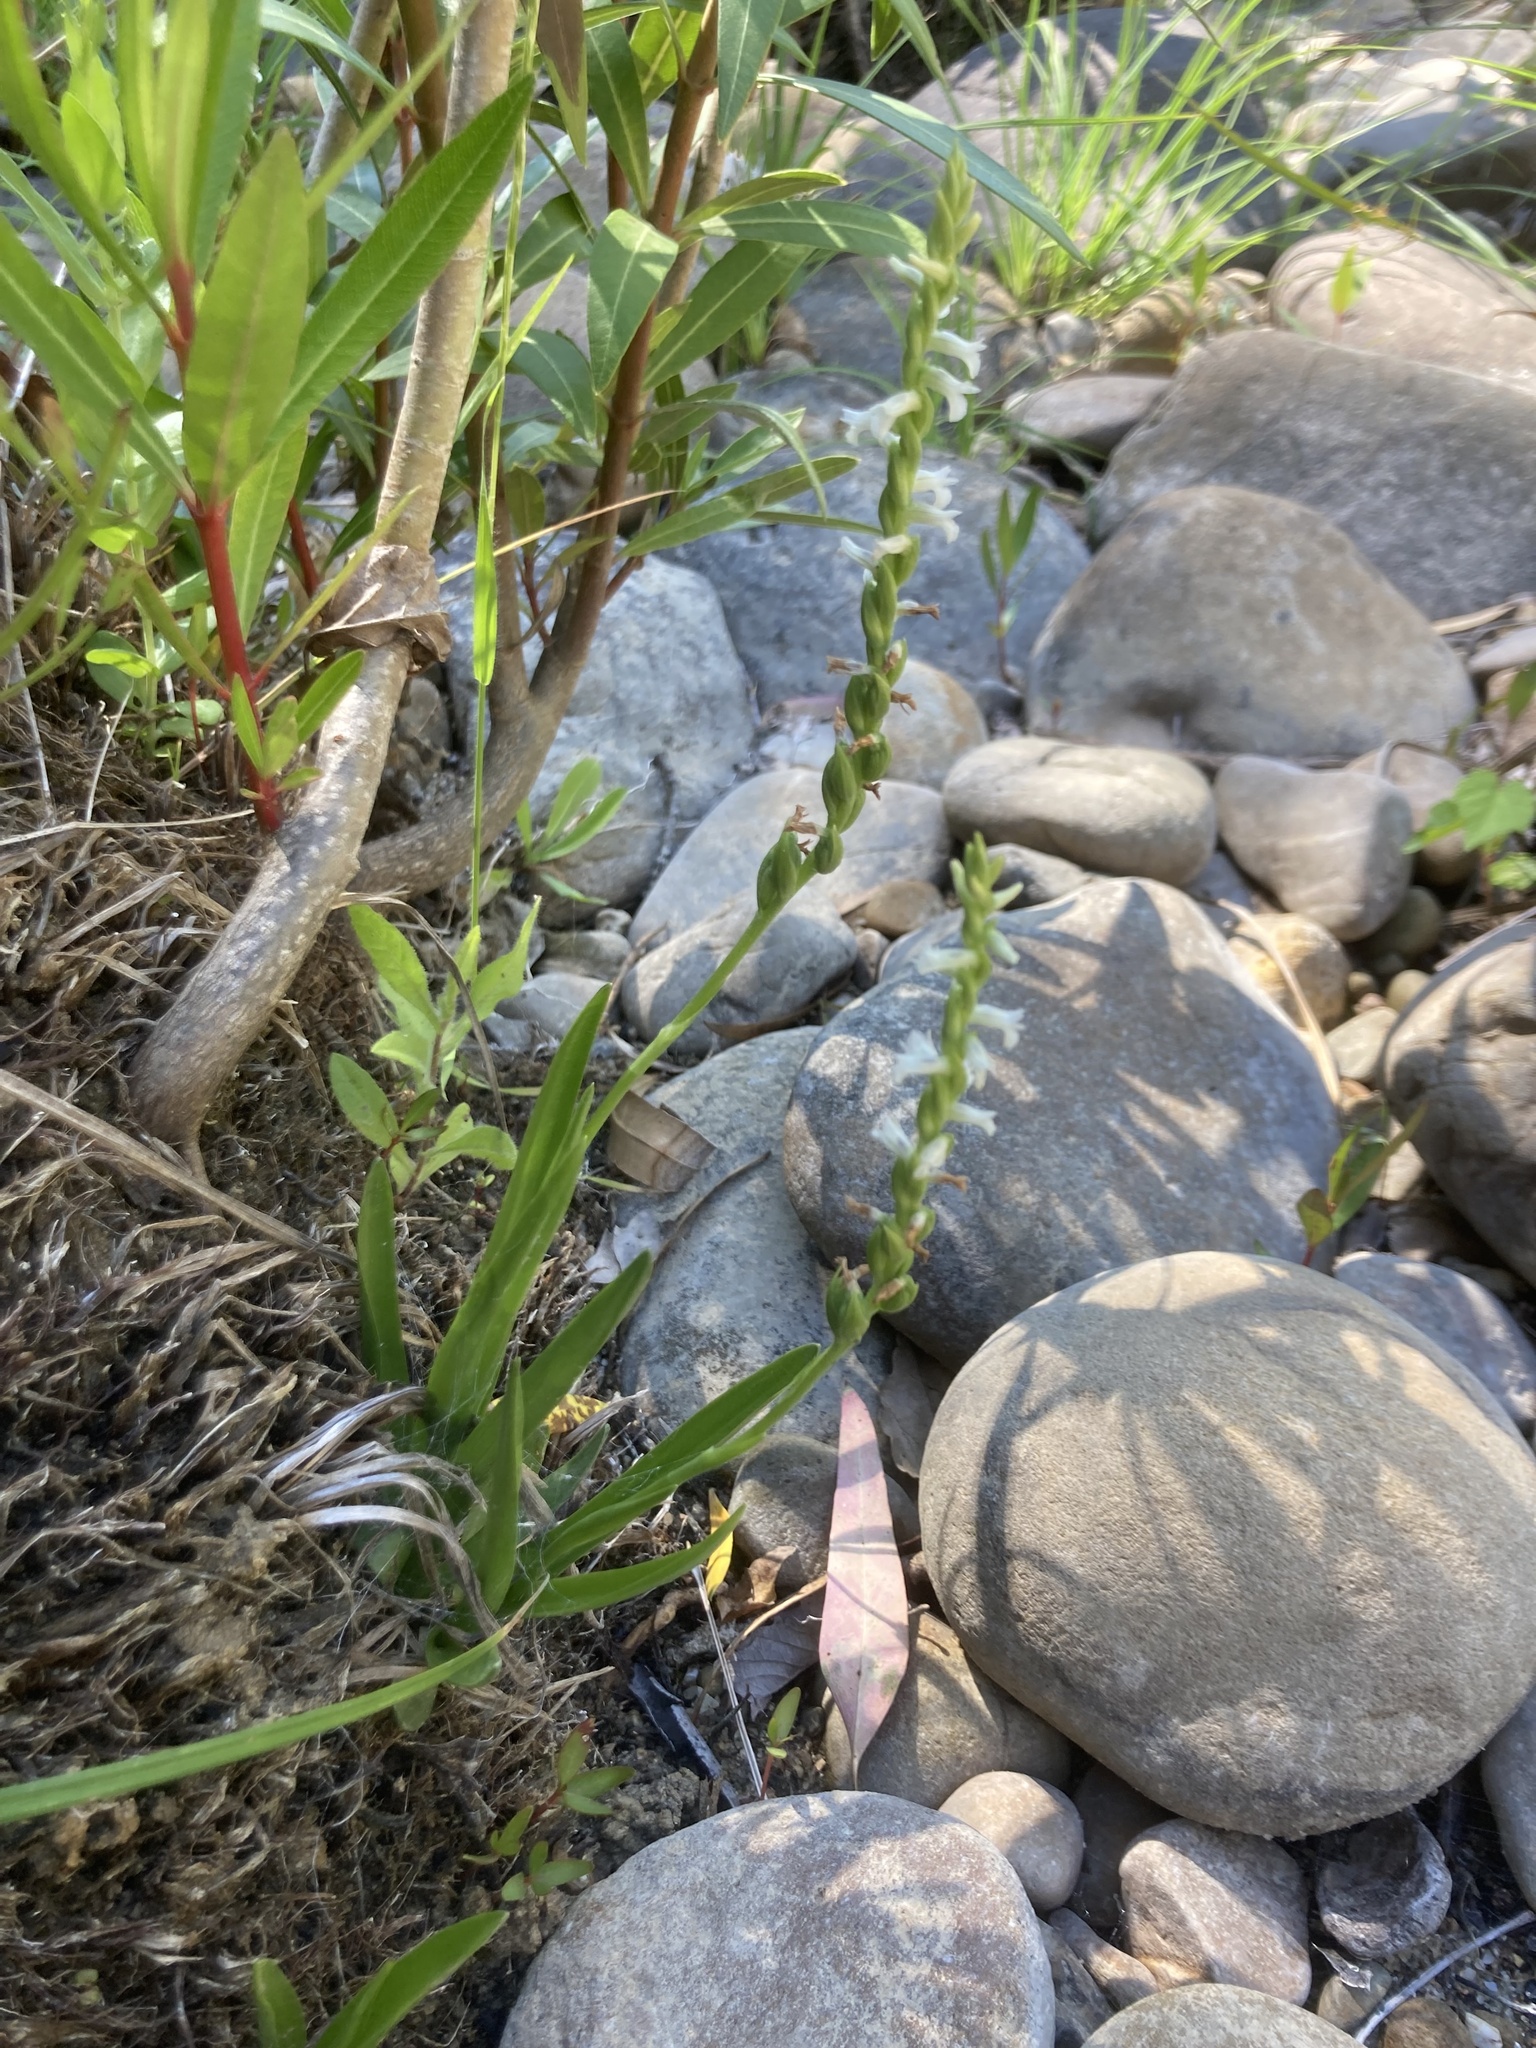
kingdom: Plantae
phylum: Tracheophyta
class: Liliopsida
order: Asparagales
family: Orchidaceae
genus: Spiranthes
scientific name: Spiranthes aestivalis
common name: Summer lady's-tresses
